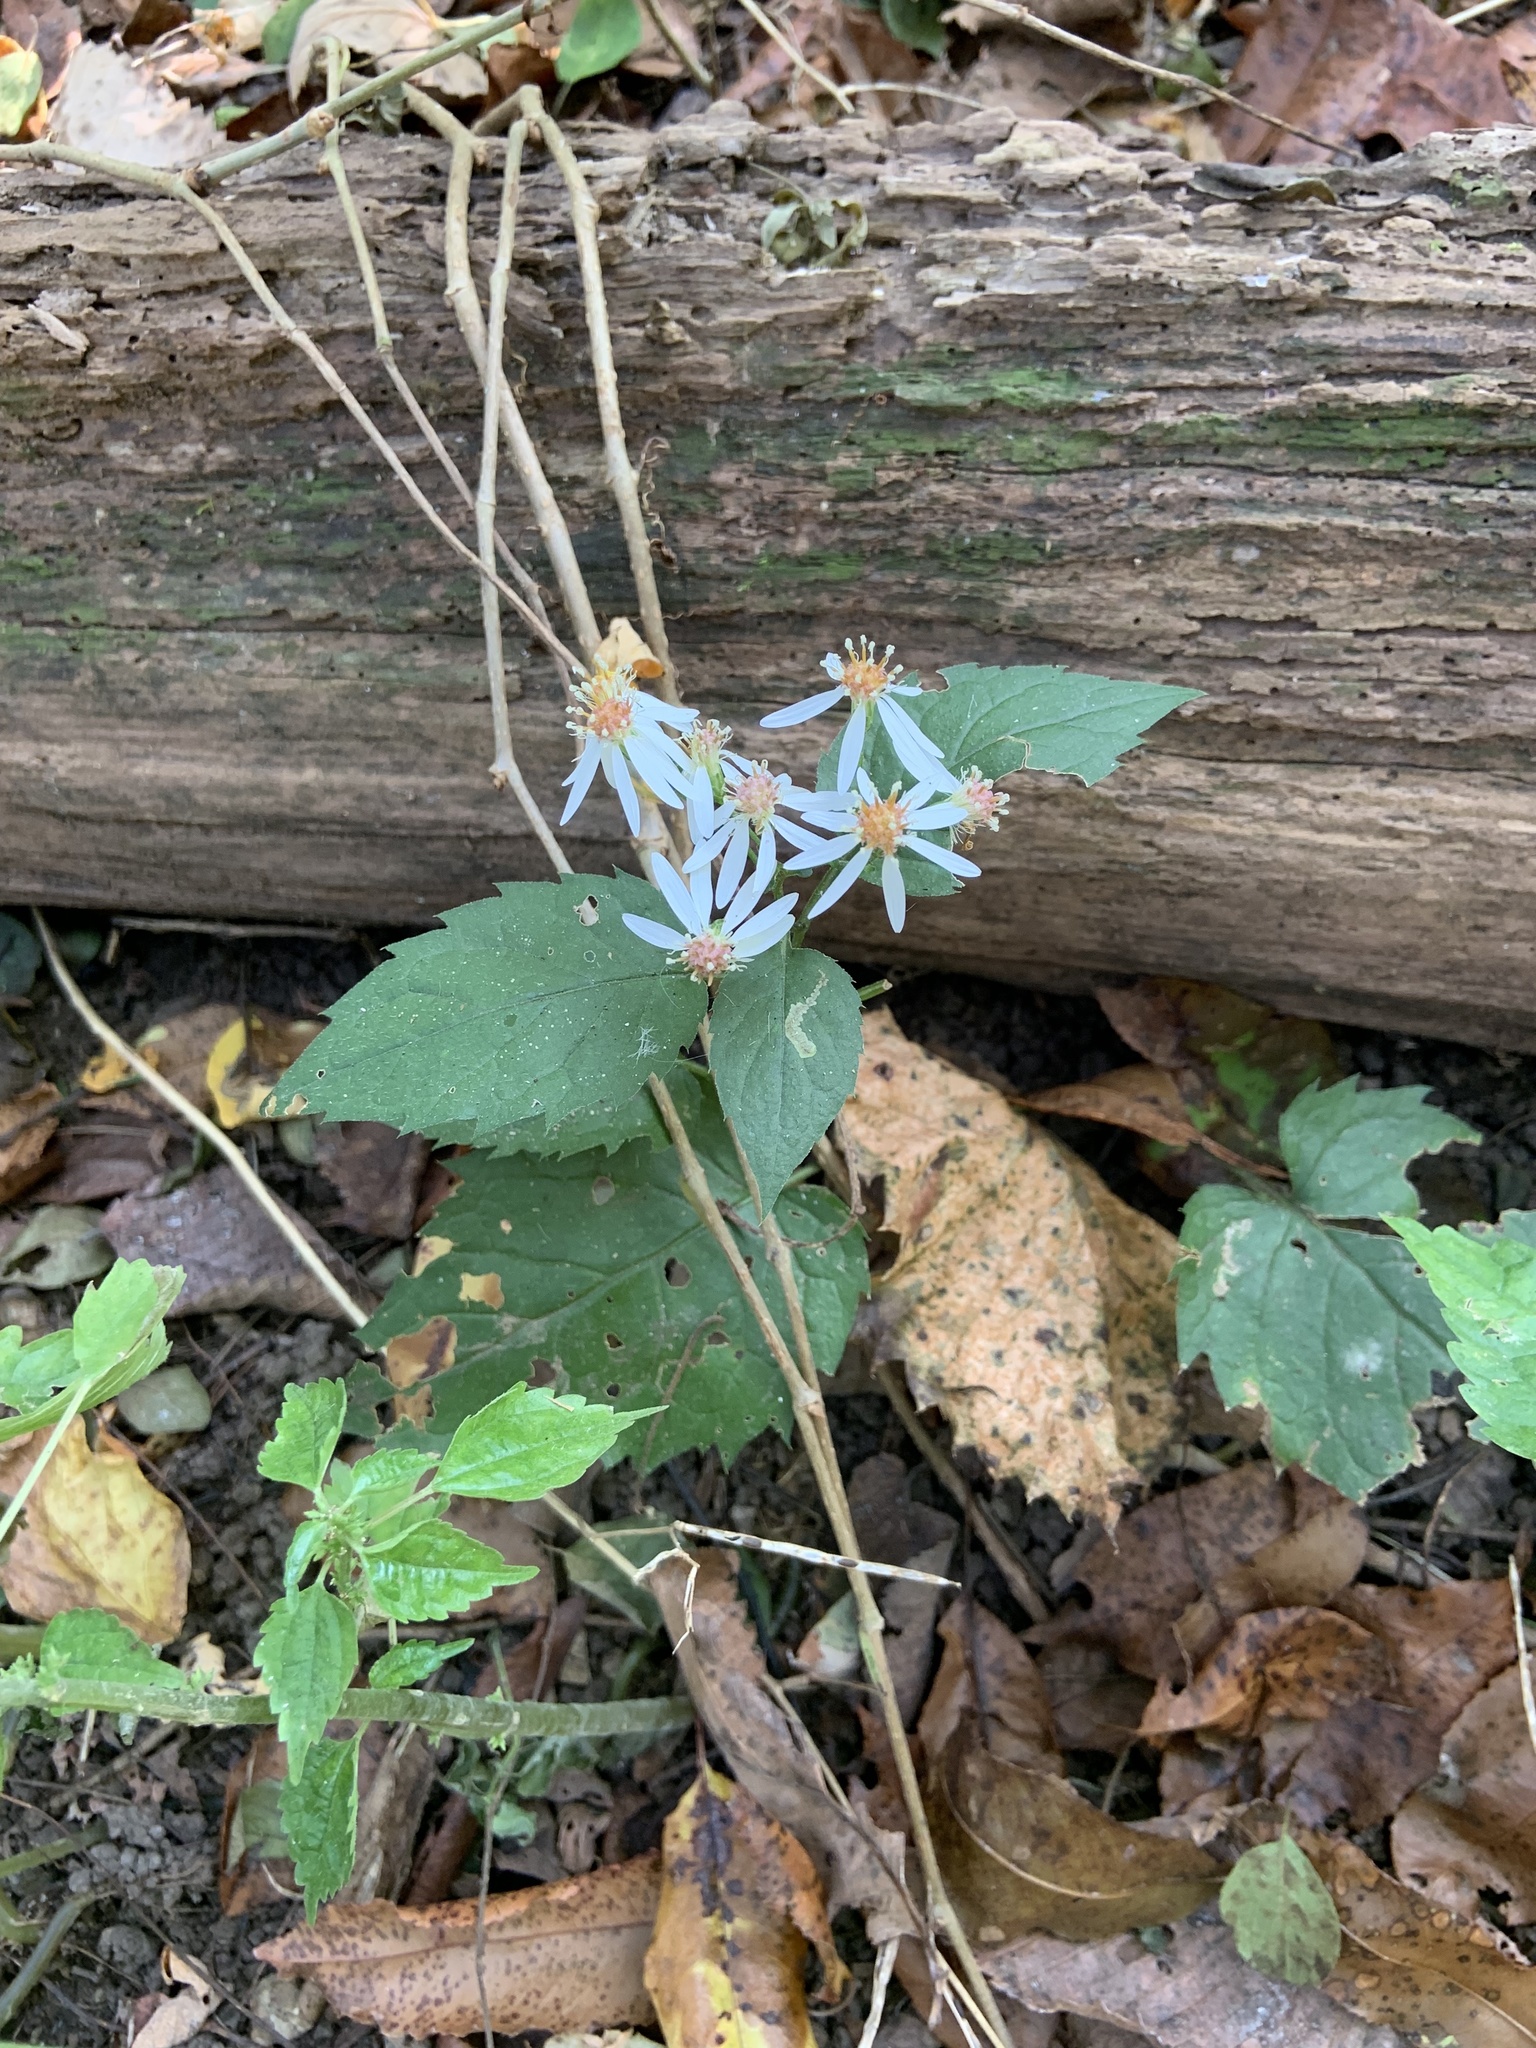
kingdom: Plantae
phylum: Tracheophyta
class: Magnoliopsida
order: Asterales
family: Asteraceae
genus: Eurybia
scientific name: Eurybia divaricata
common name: White wood aster
